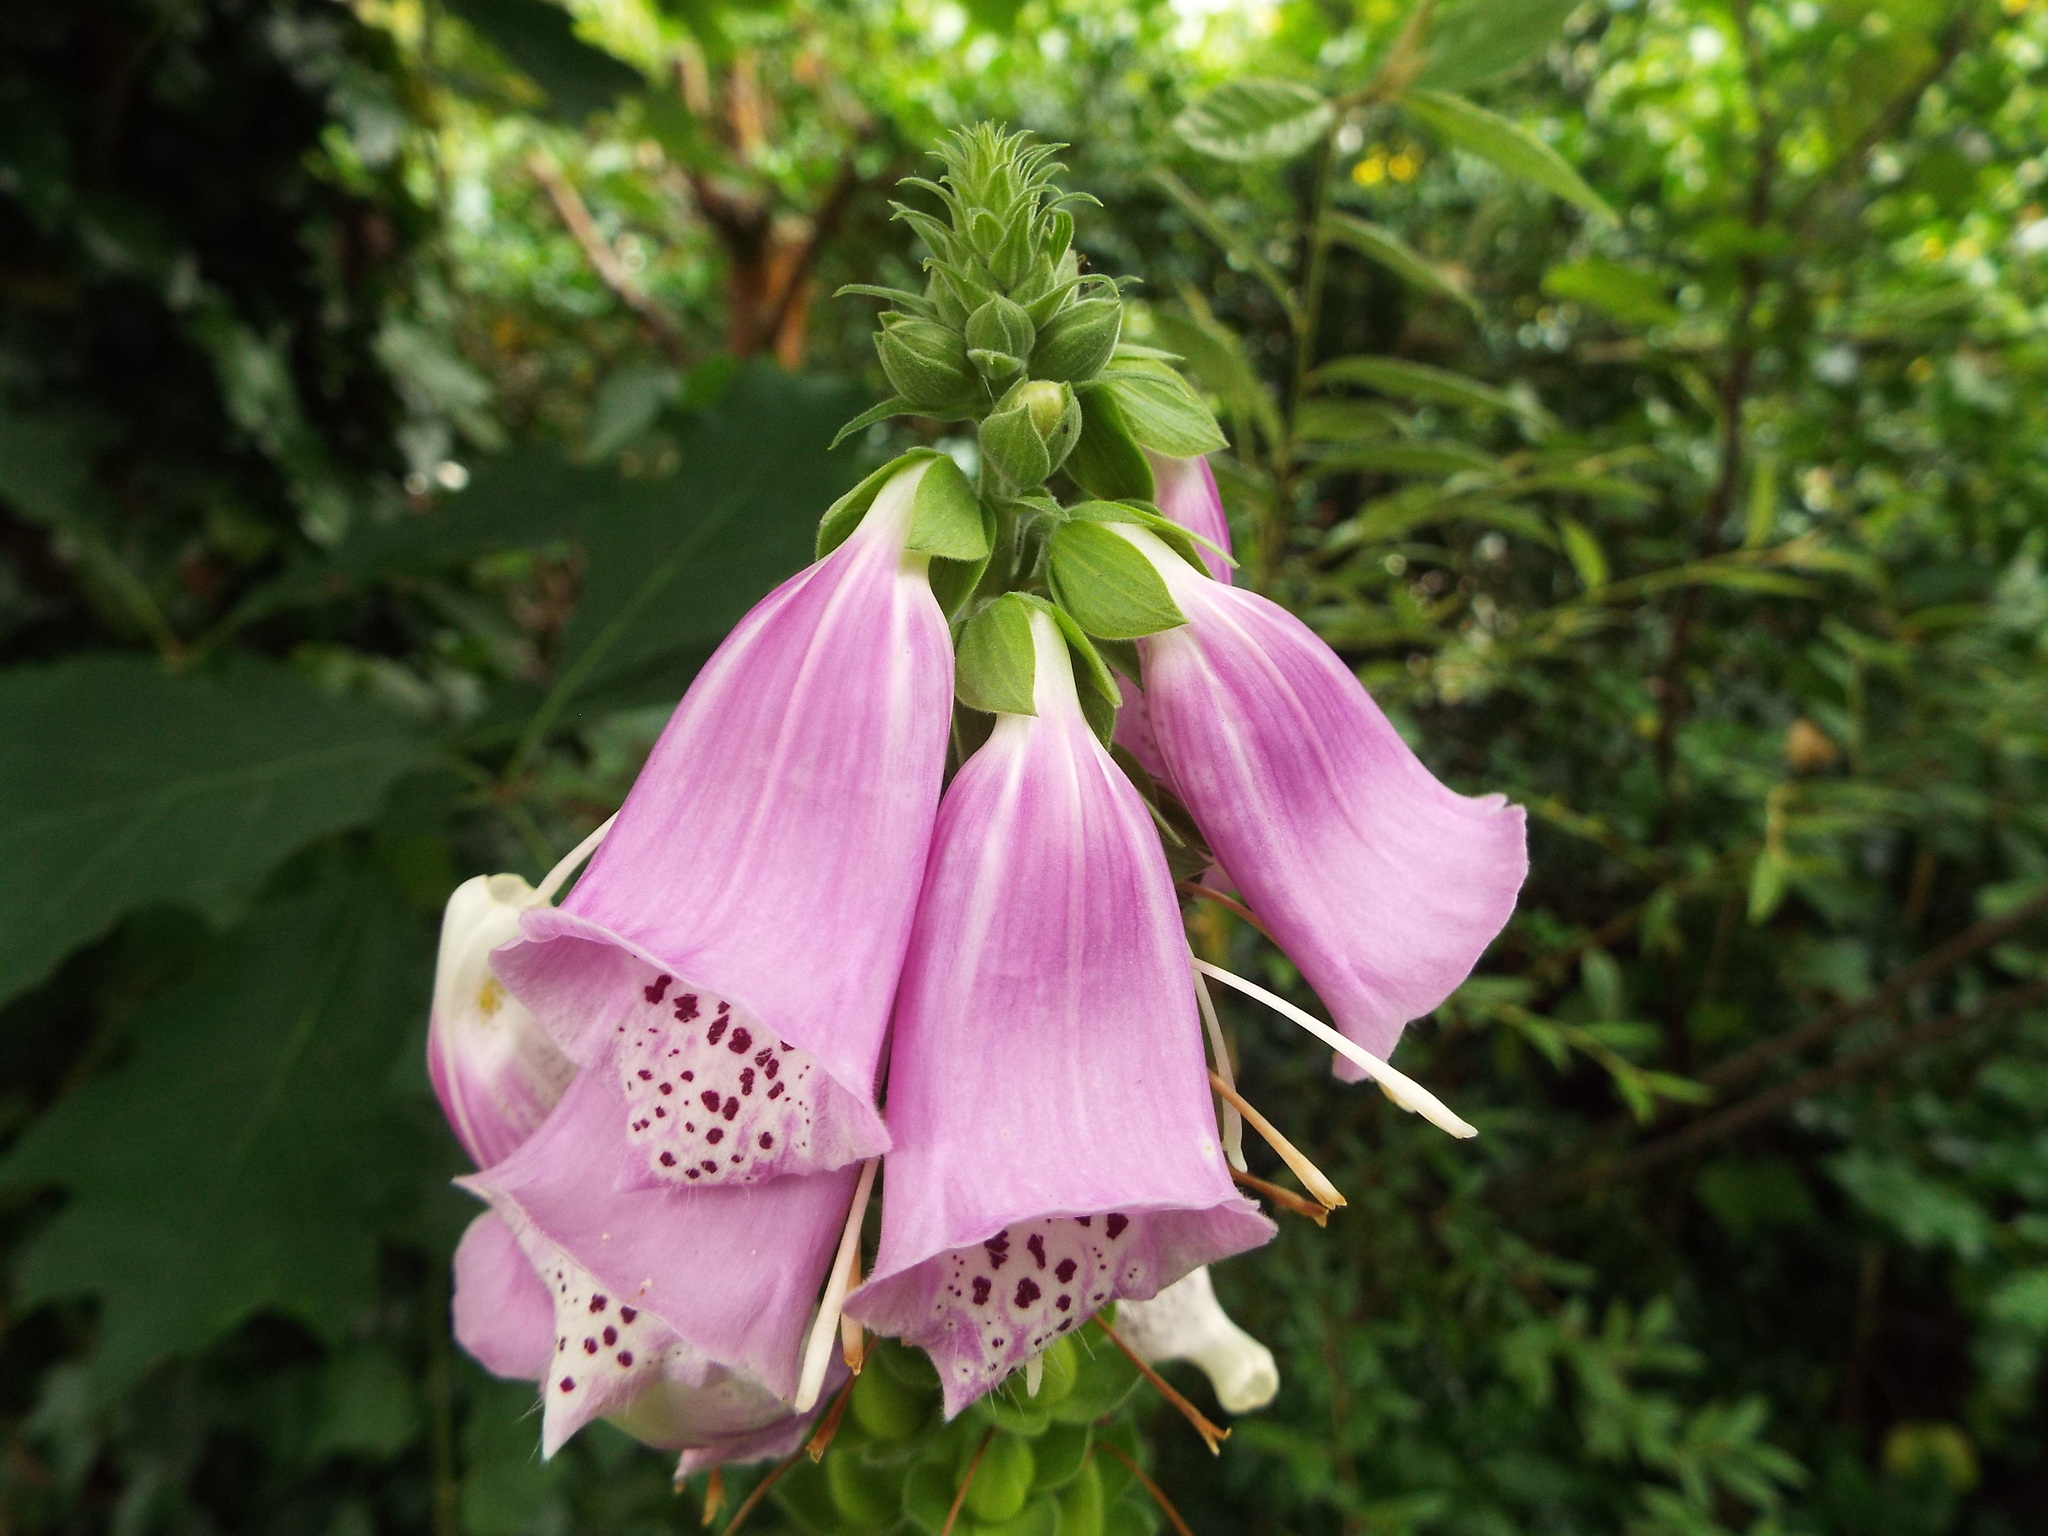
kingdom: Plantae
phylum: Tracheophyta
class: Magnoliopsida
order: Lamiales
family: Plantaginaceae
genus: Digitalis
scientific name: Digitalis purpurea
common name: Foxglove
